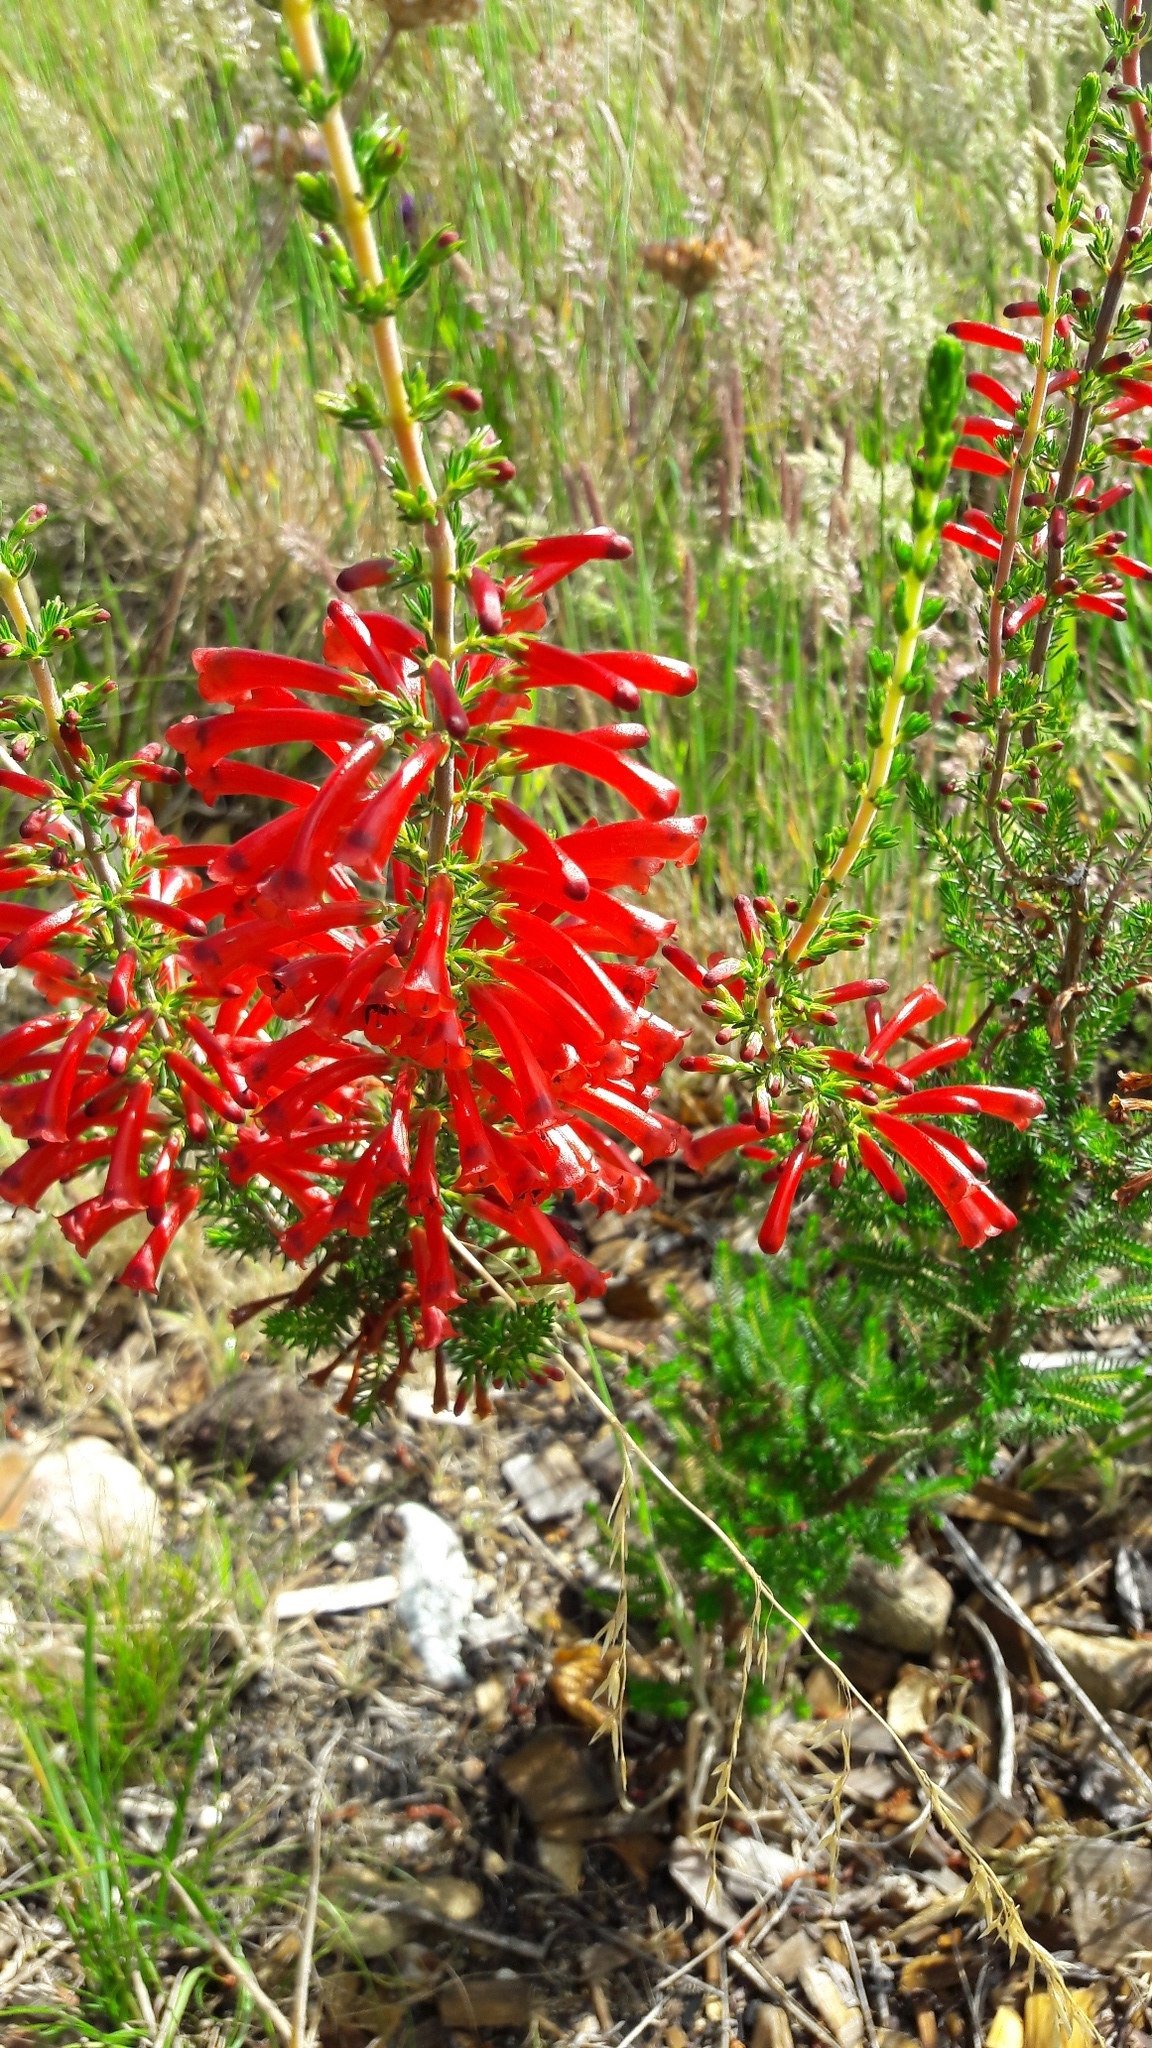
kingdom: Plantae
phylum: Tracheophyta
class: Magnoliopsida
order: Ericales
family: Ericaceae
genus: Erica
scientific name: Erica cruenta
